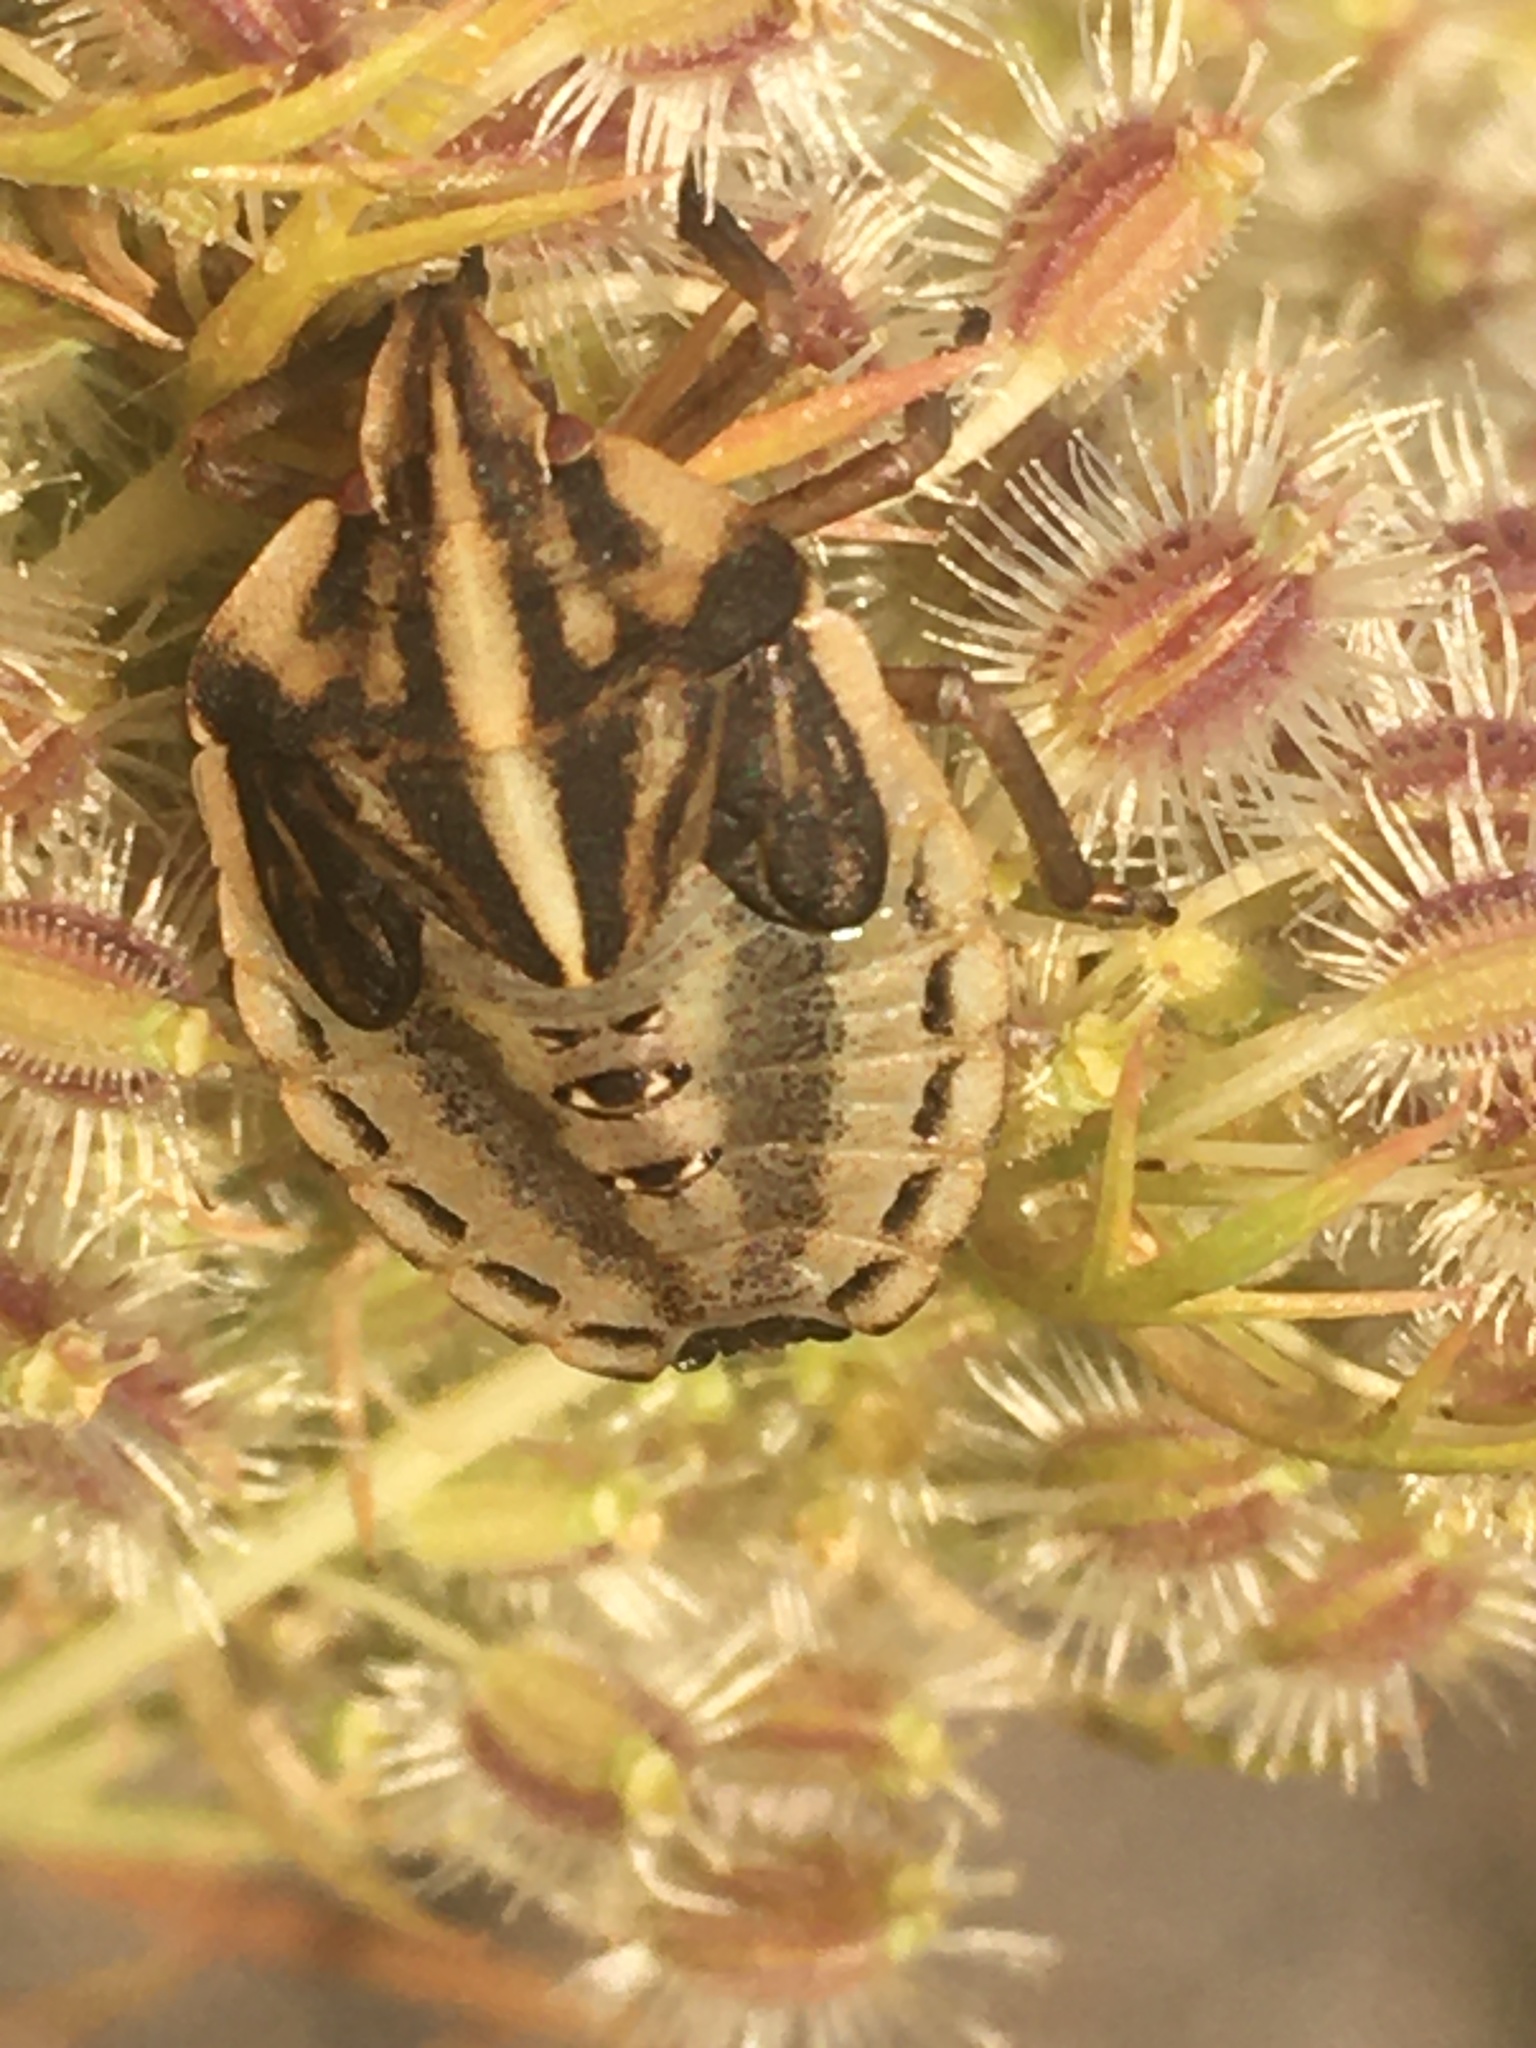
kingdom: Animalia
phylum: Arthropoda
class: Insecta
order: Hemiptera
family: Pentatomidae
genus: Graphosoma
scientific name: Graphosoma semipunctatum
